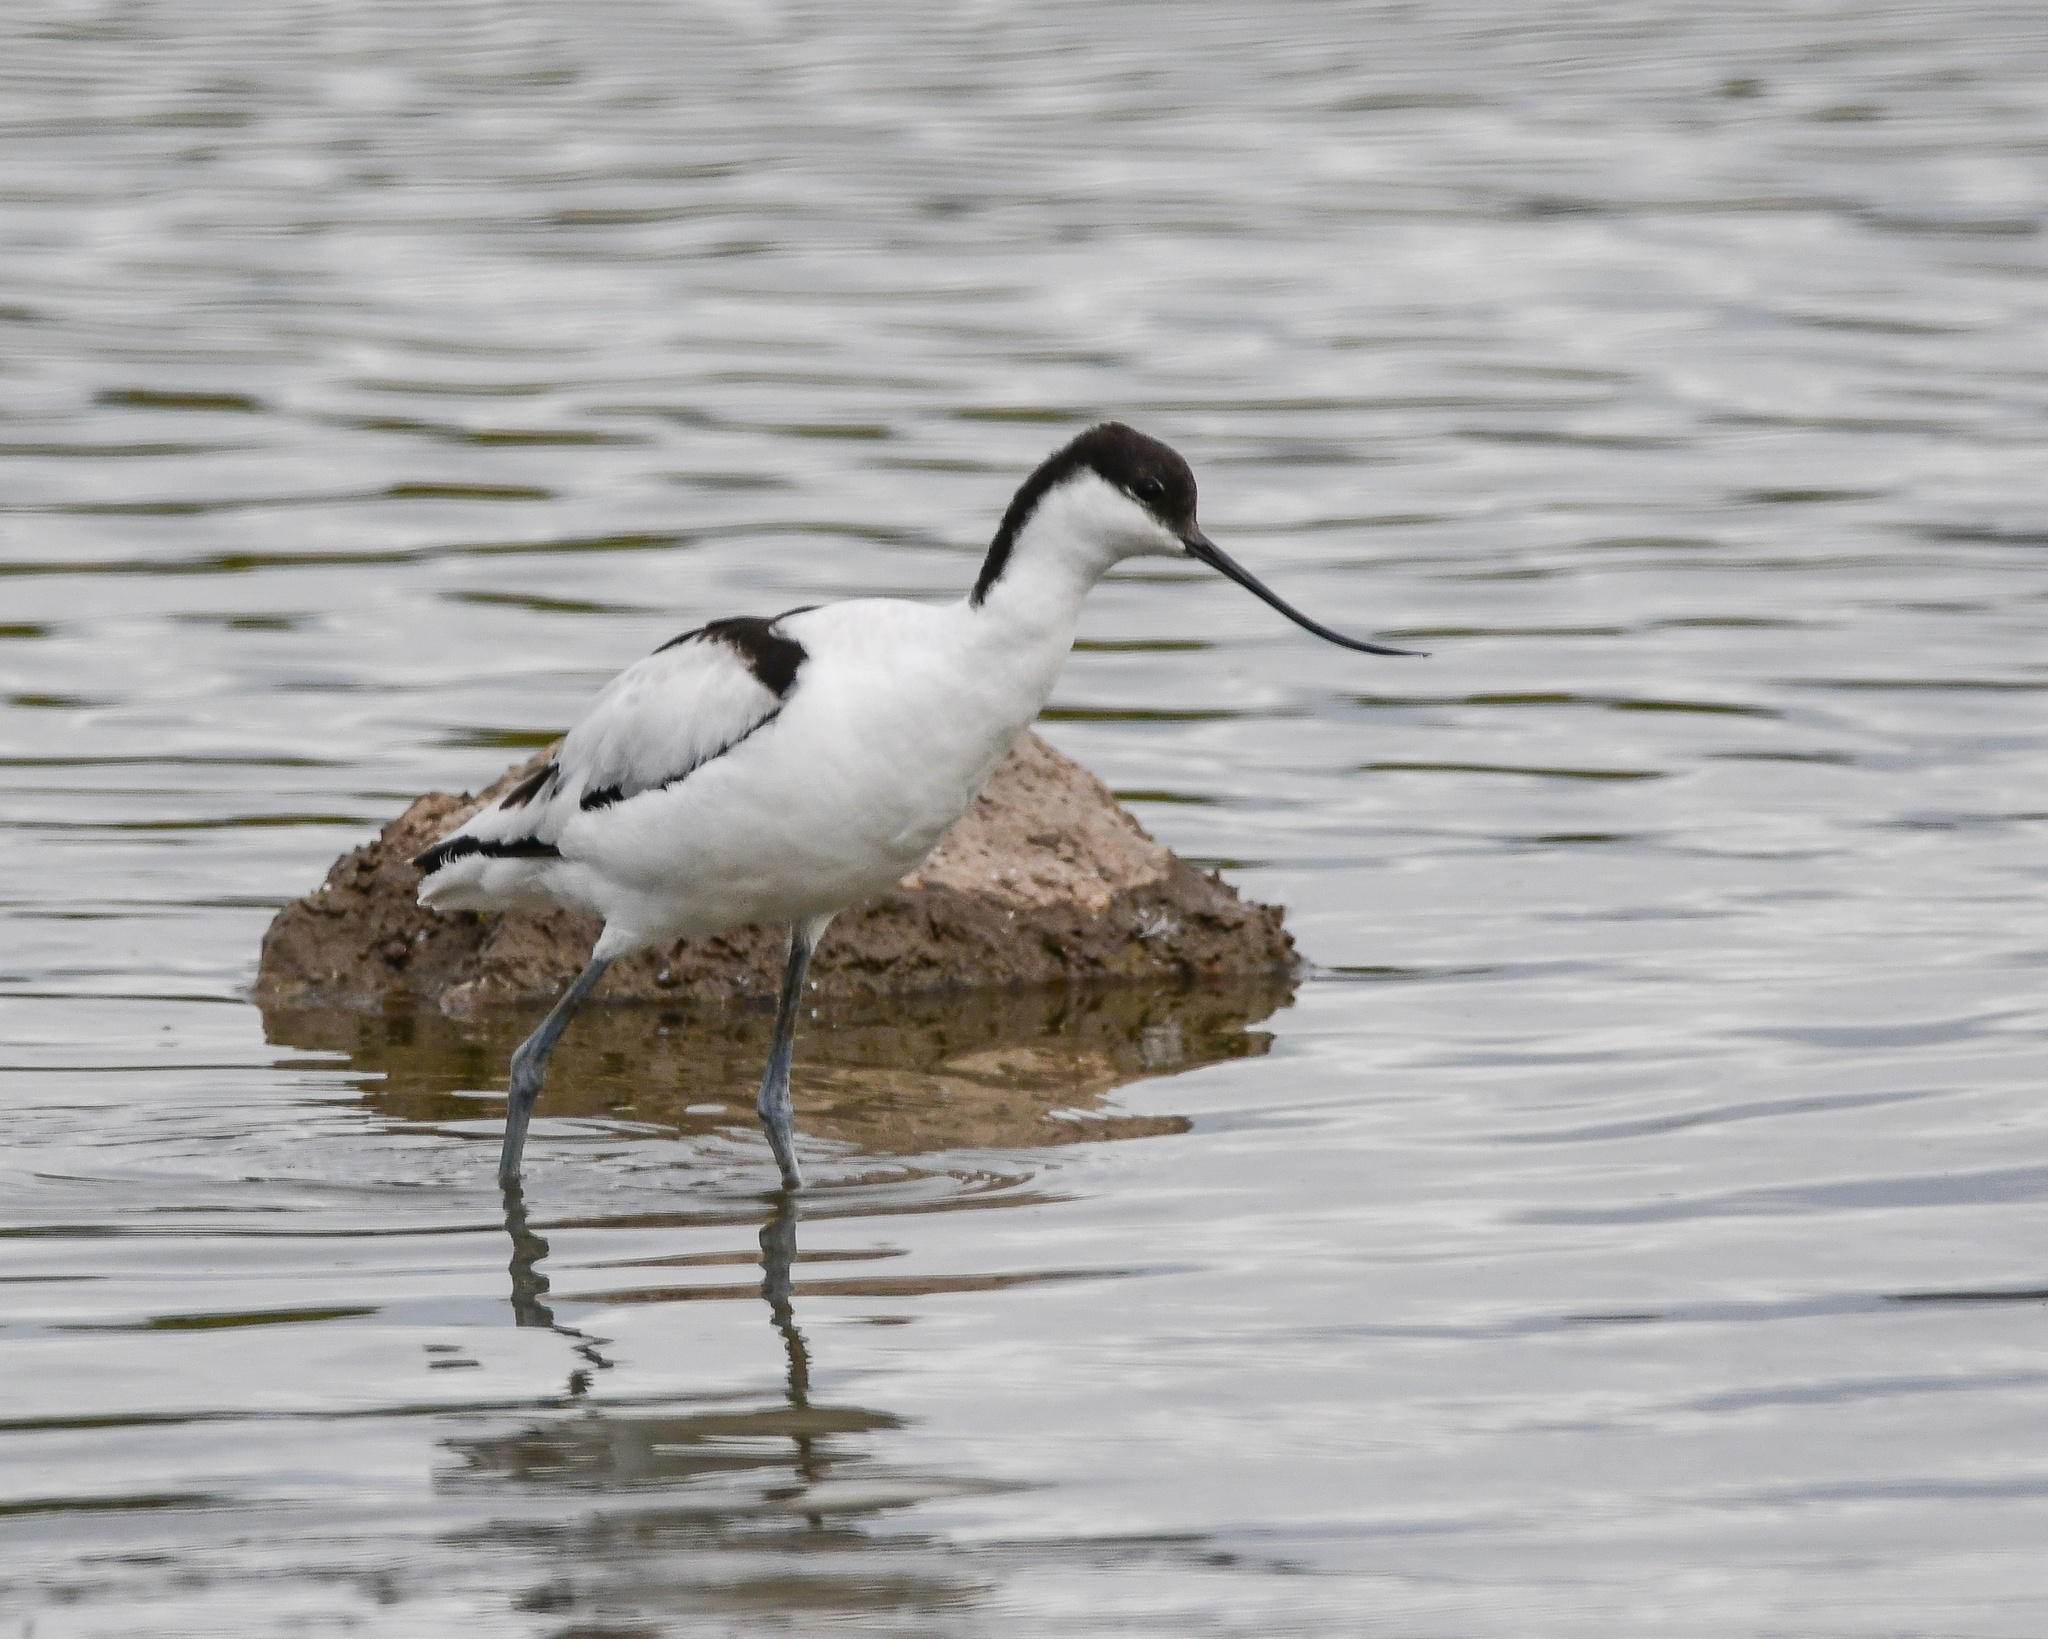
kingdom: Animalia
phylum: Chordata
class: Aves
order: Charadriiformes
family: Recurvirostridae
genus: Recurvirostra
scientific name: Recurvirostra avosetta
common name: Pied avocet
